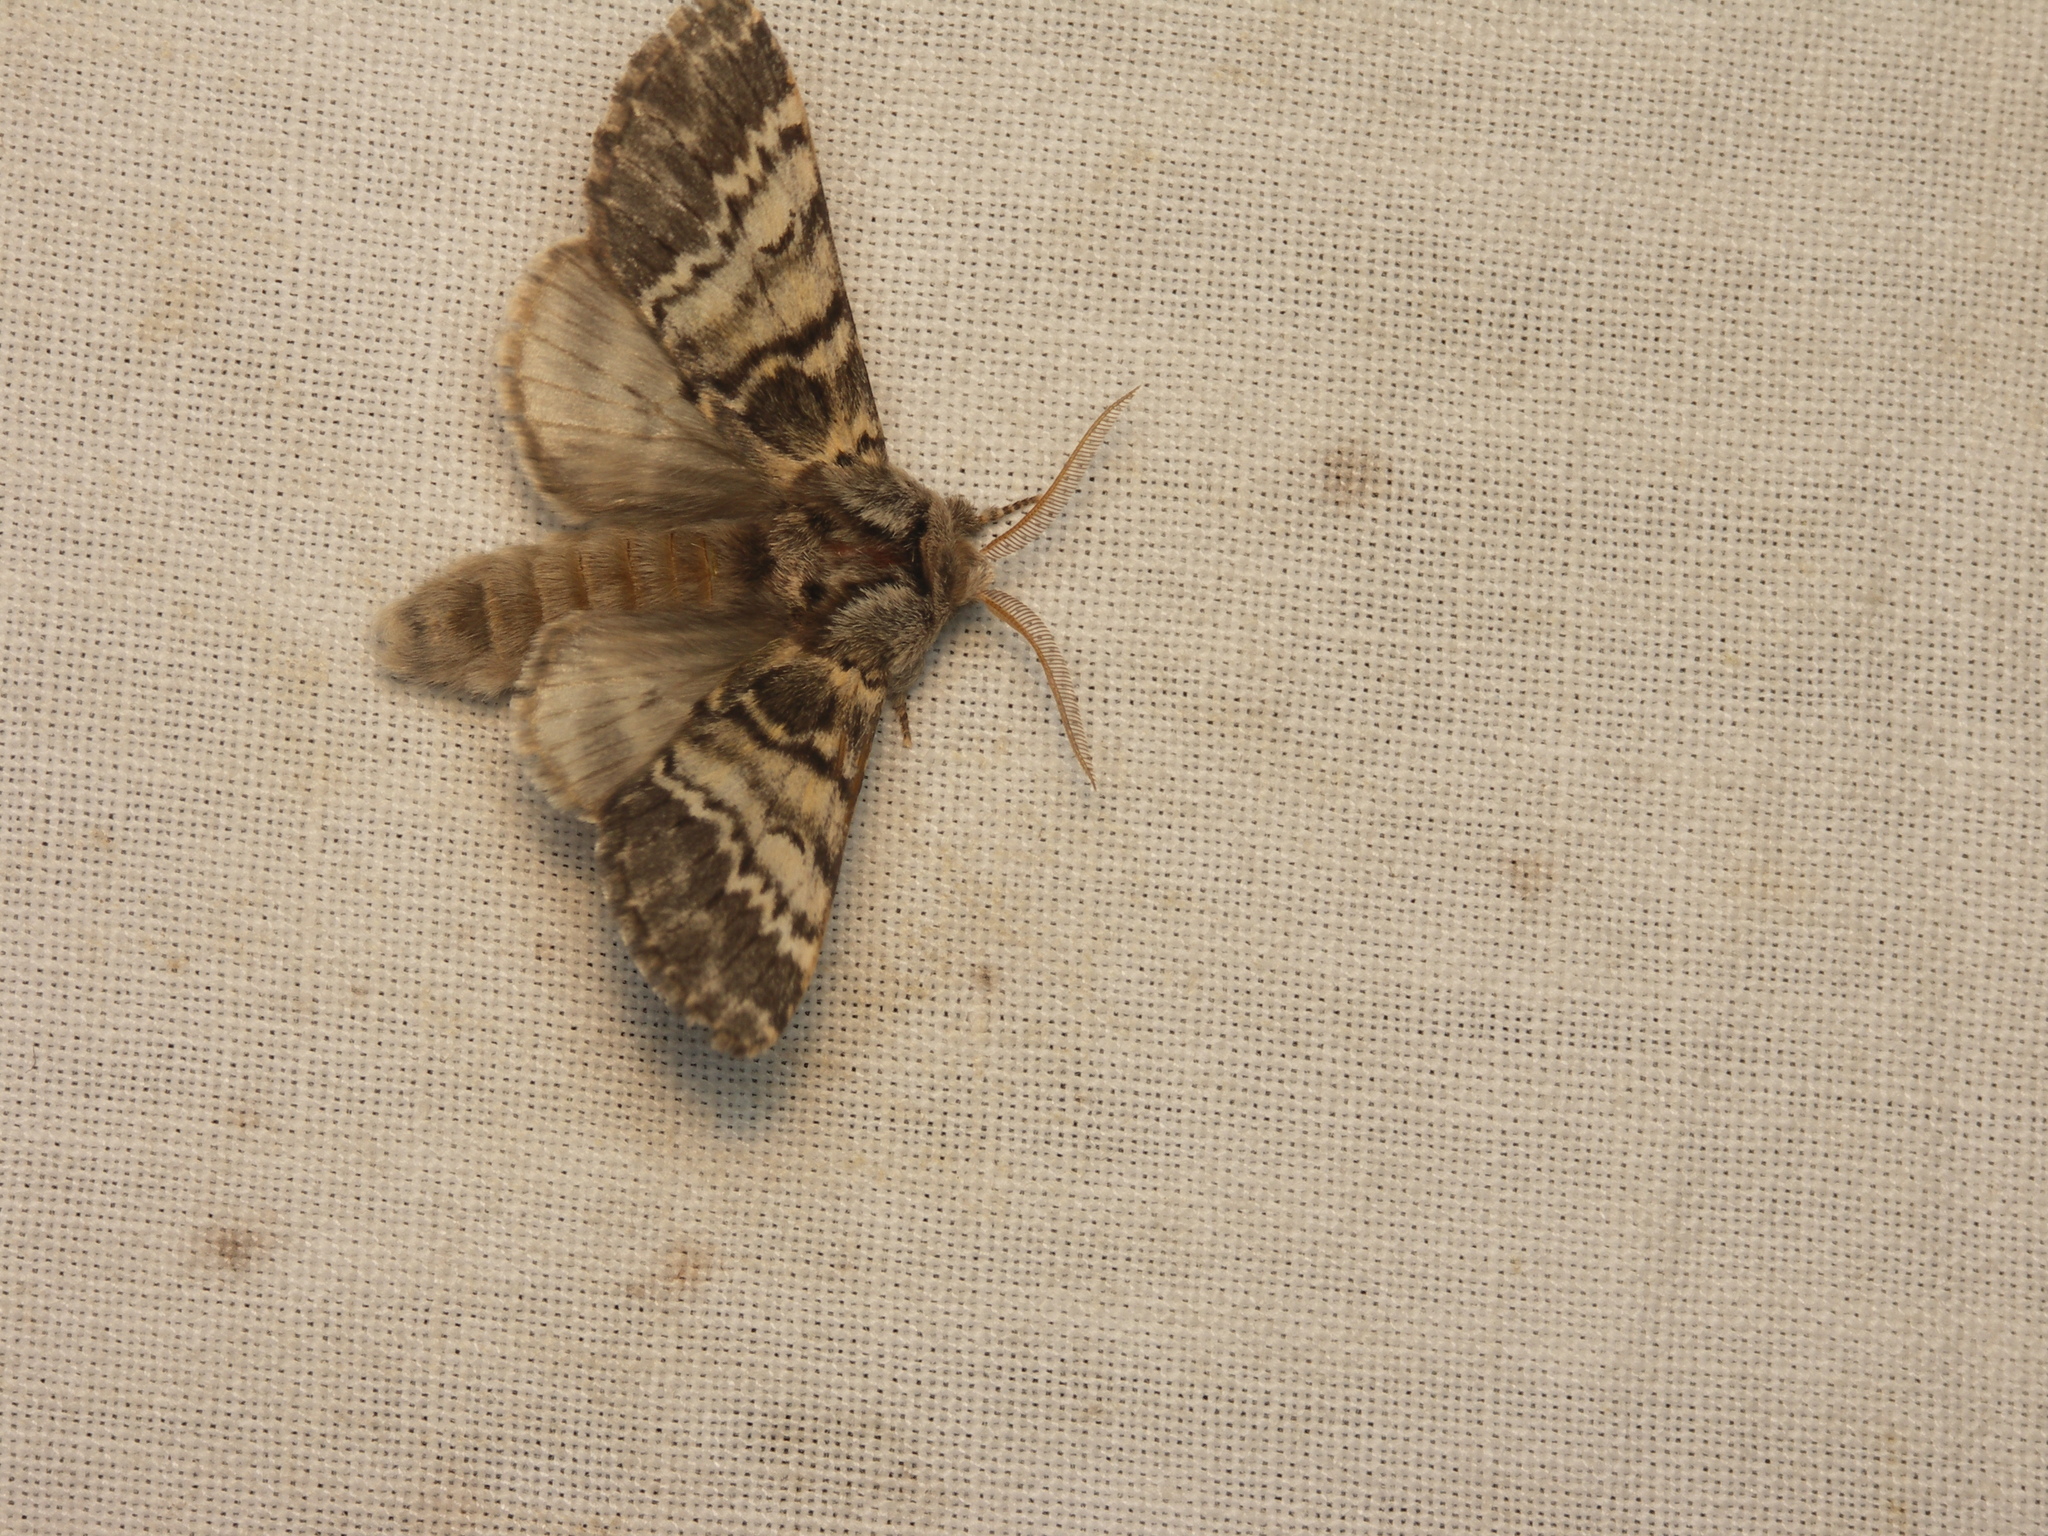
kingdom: Animalia
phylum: Arthropoda
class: Insecta
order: Lepidoptera
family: Notodontidae
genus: Drymonia
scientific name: Drymonia ruficornis
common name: Lunar marbled brown
